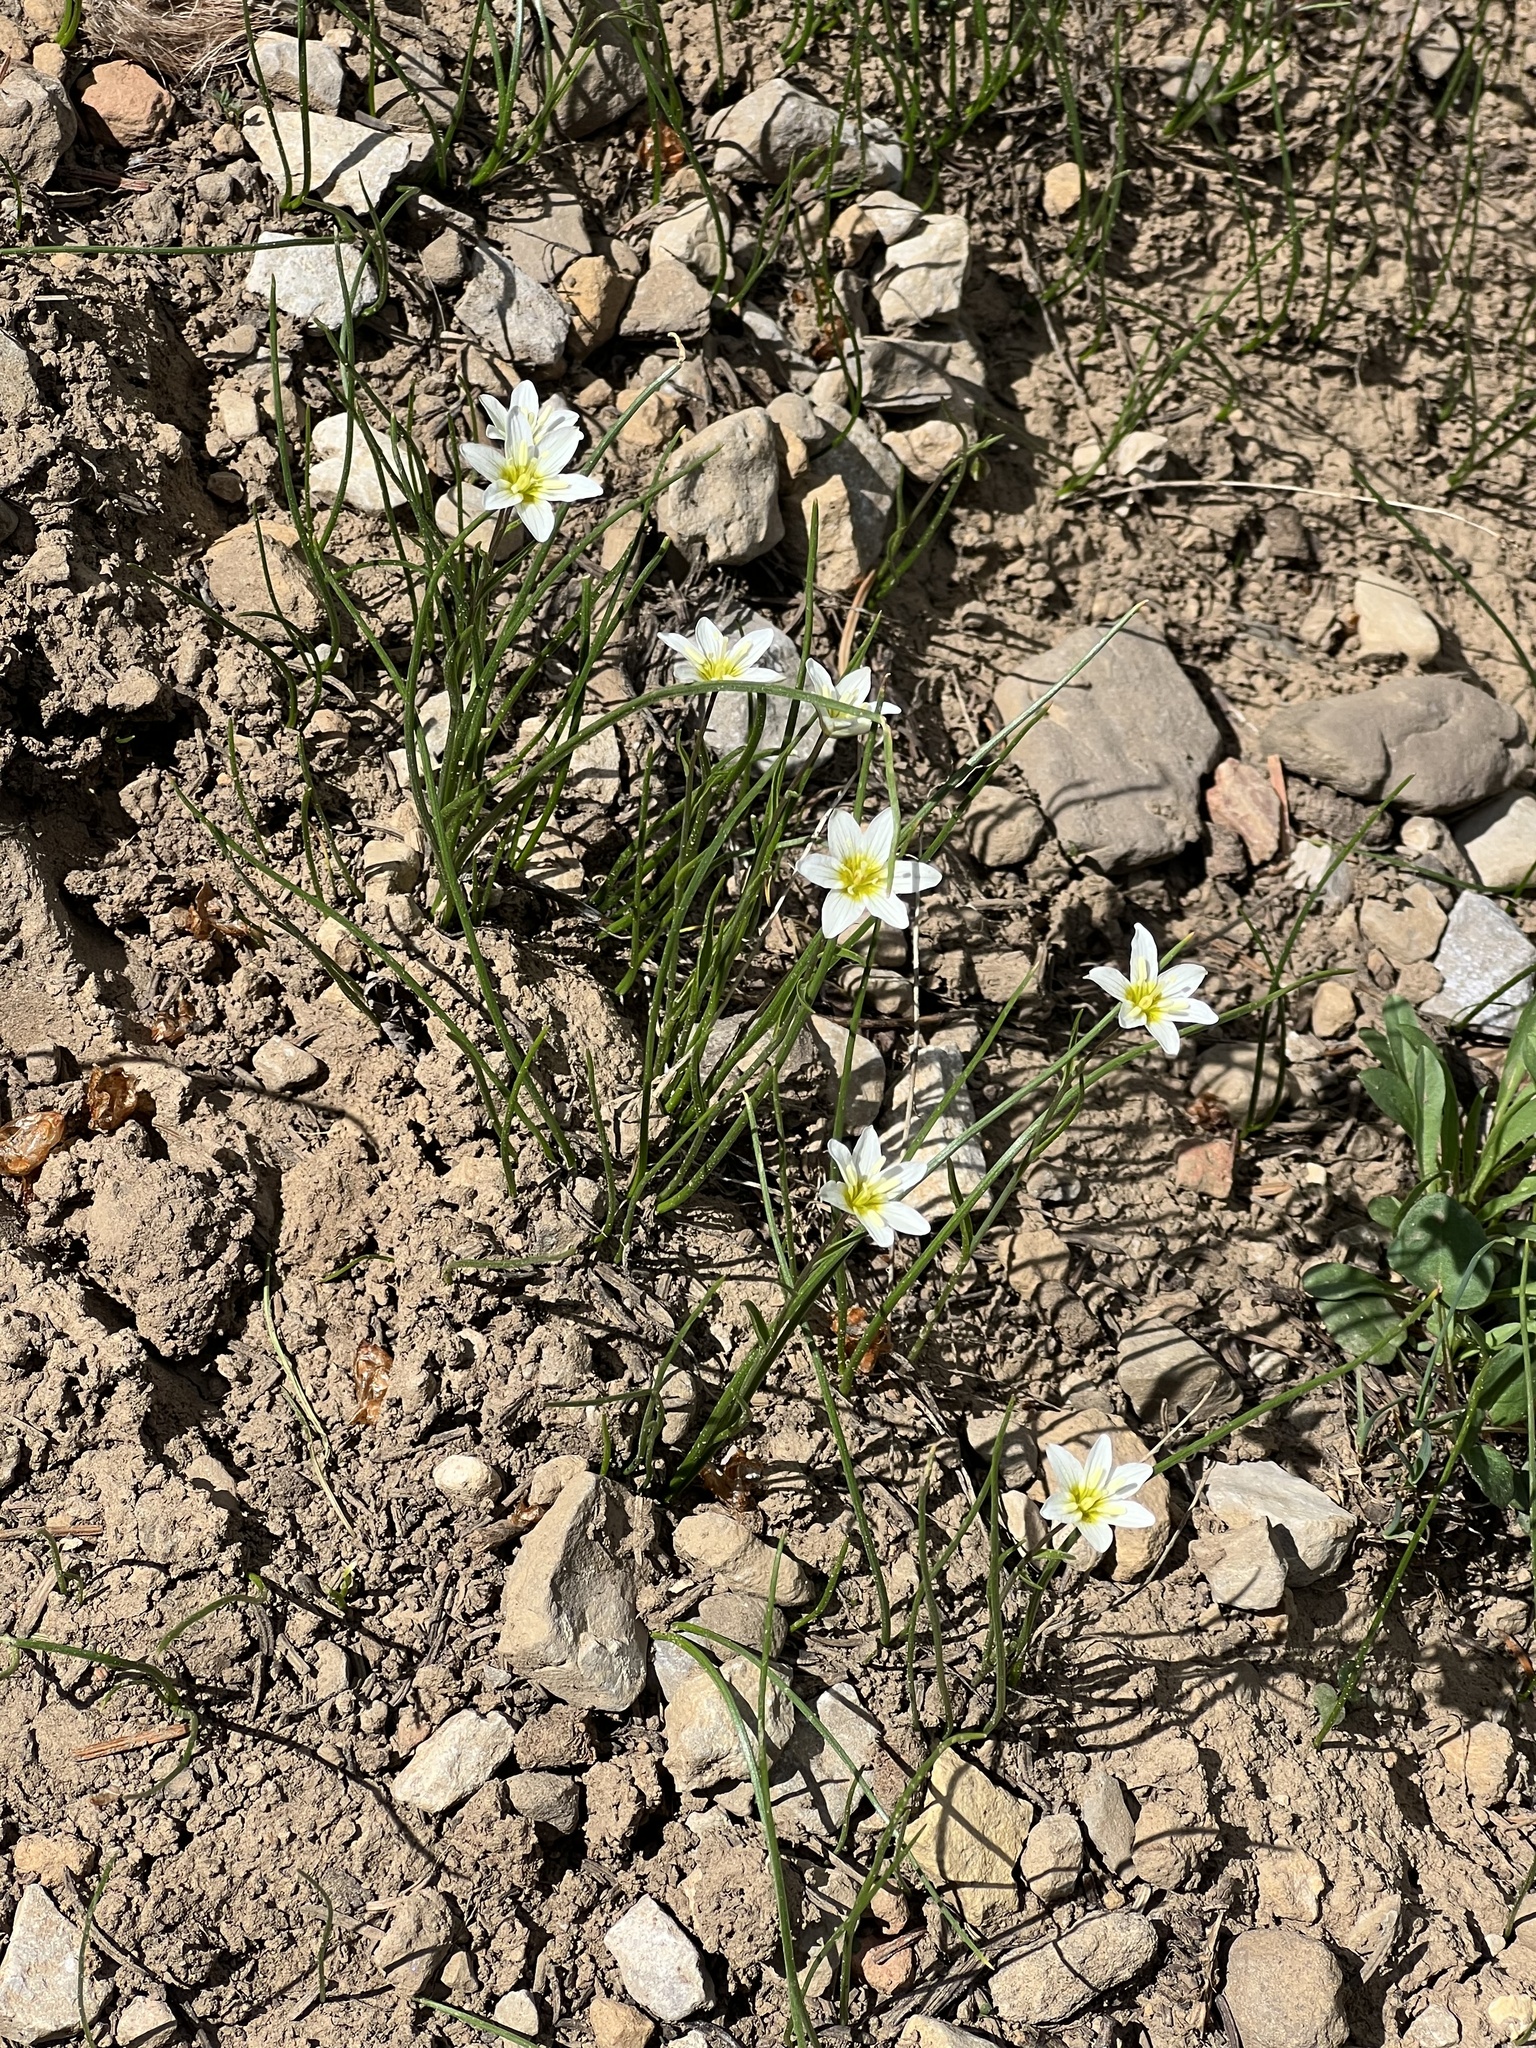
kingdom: Plantae
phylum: Tracheophyta
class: Liliopsida
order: Liliales
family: Liliaceae
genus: Gagea
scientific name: Gagea serotina
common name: Snowdon lily
